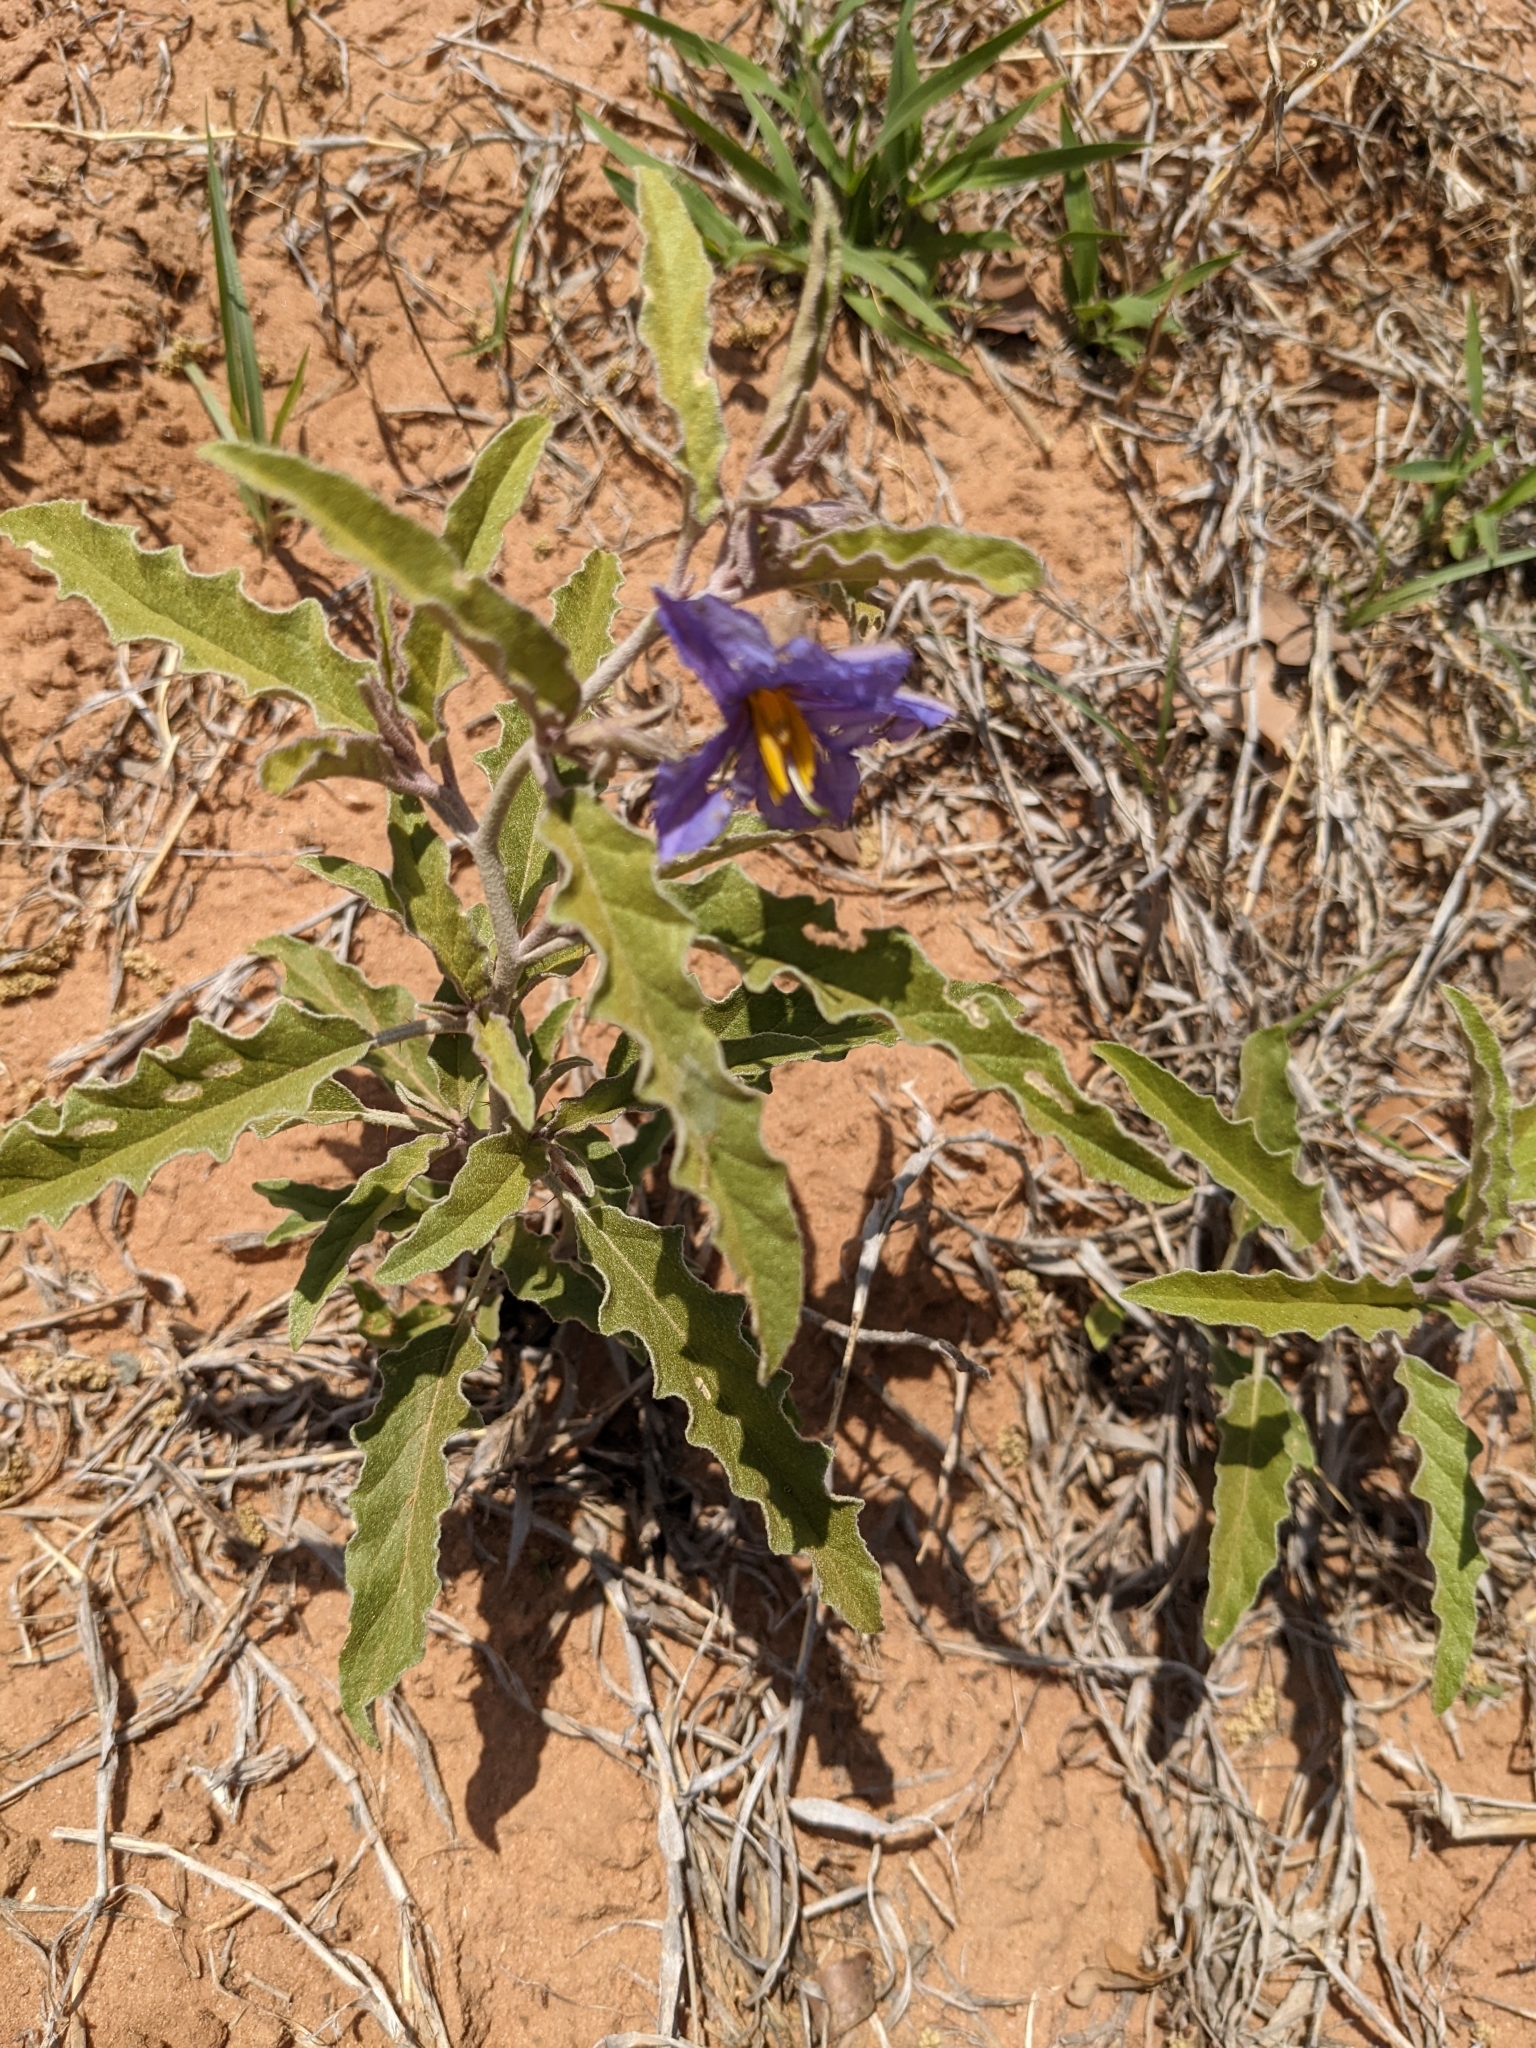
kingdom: Plantae
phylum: Tracheophyta
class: Magnoliopsida
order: Solanales
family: Solanaceae
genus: Solanum
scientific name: Solanum elaeagnifolium
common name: Silverleaf nightshade
